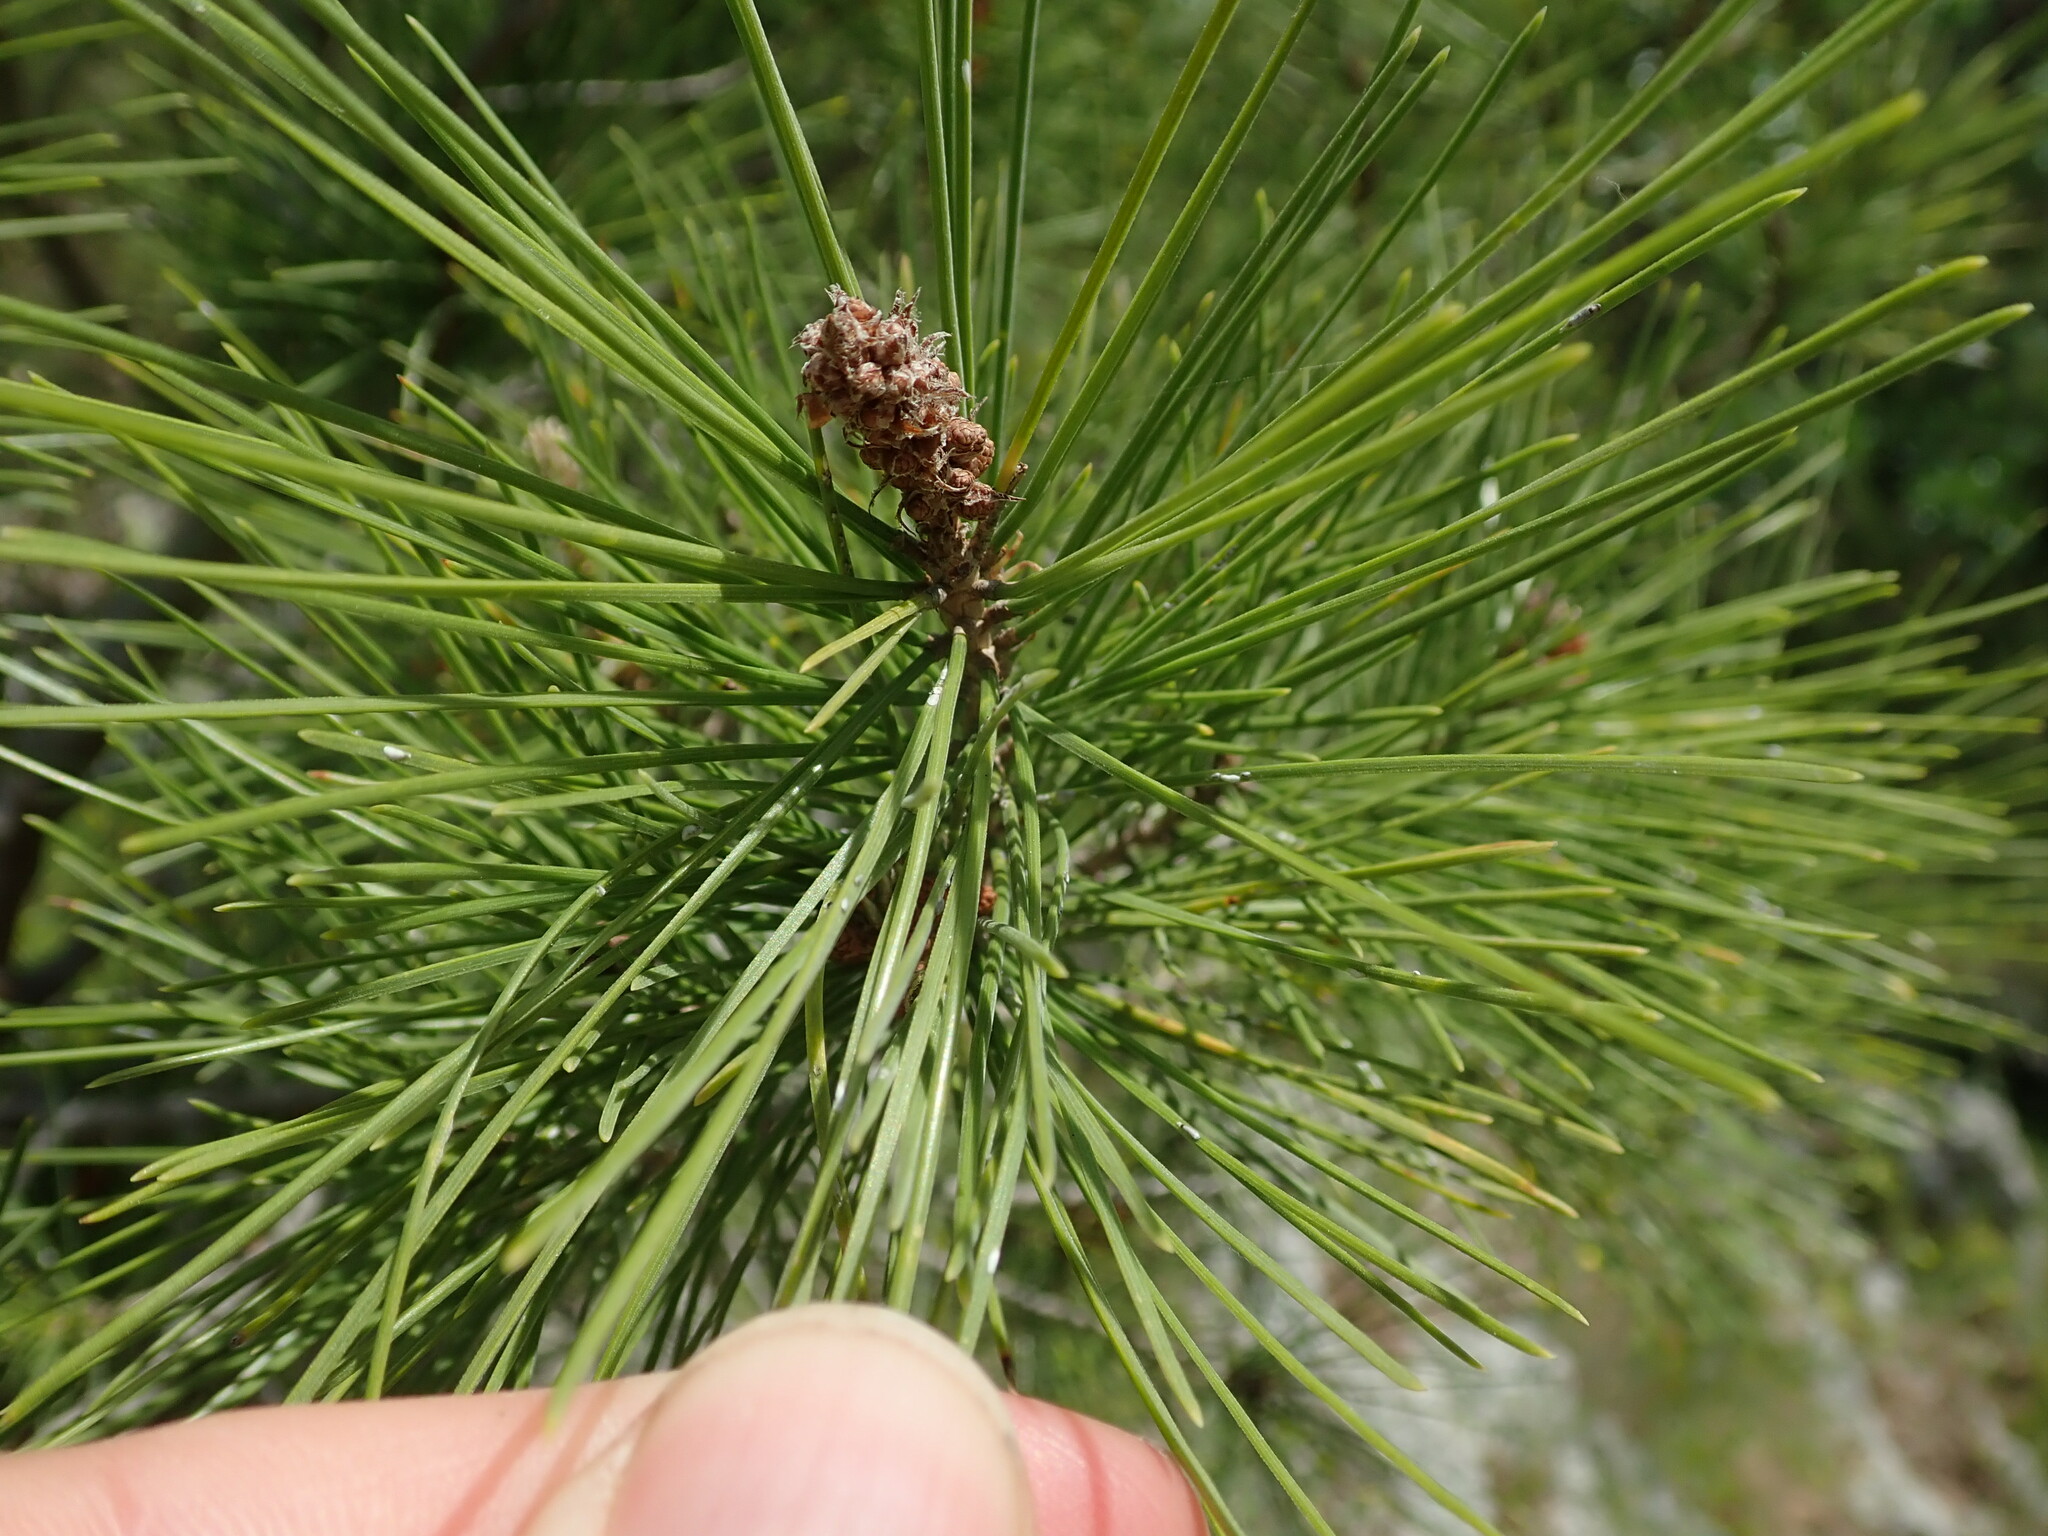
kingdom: Plantae
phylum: Tracheophyta
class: Pinopsida
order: Pinales
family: Pinaceae
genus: Pinus
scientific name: Pinus halepensis
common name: Aleppo pine
